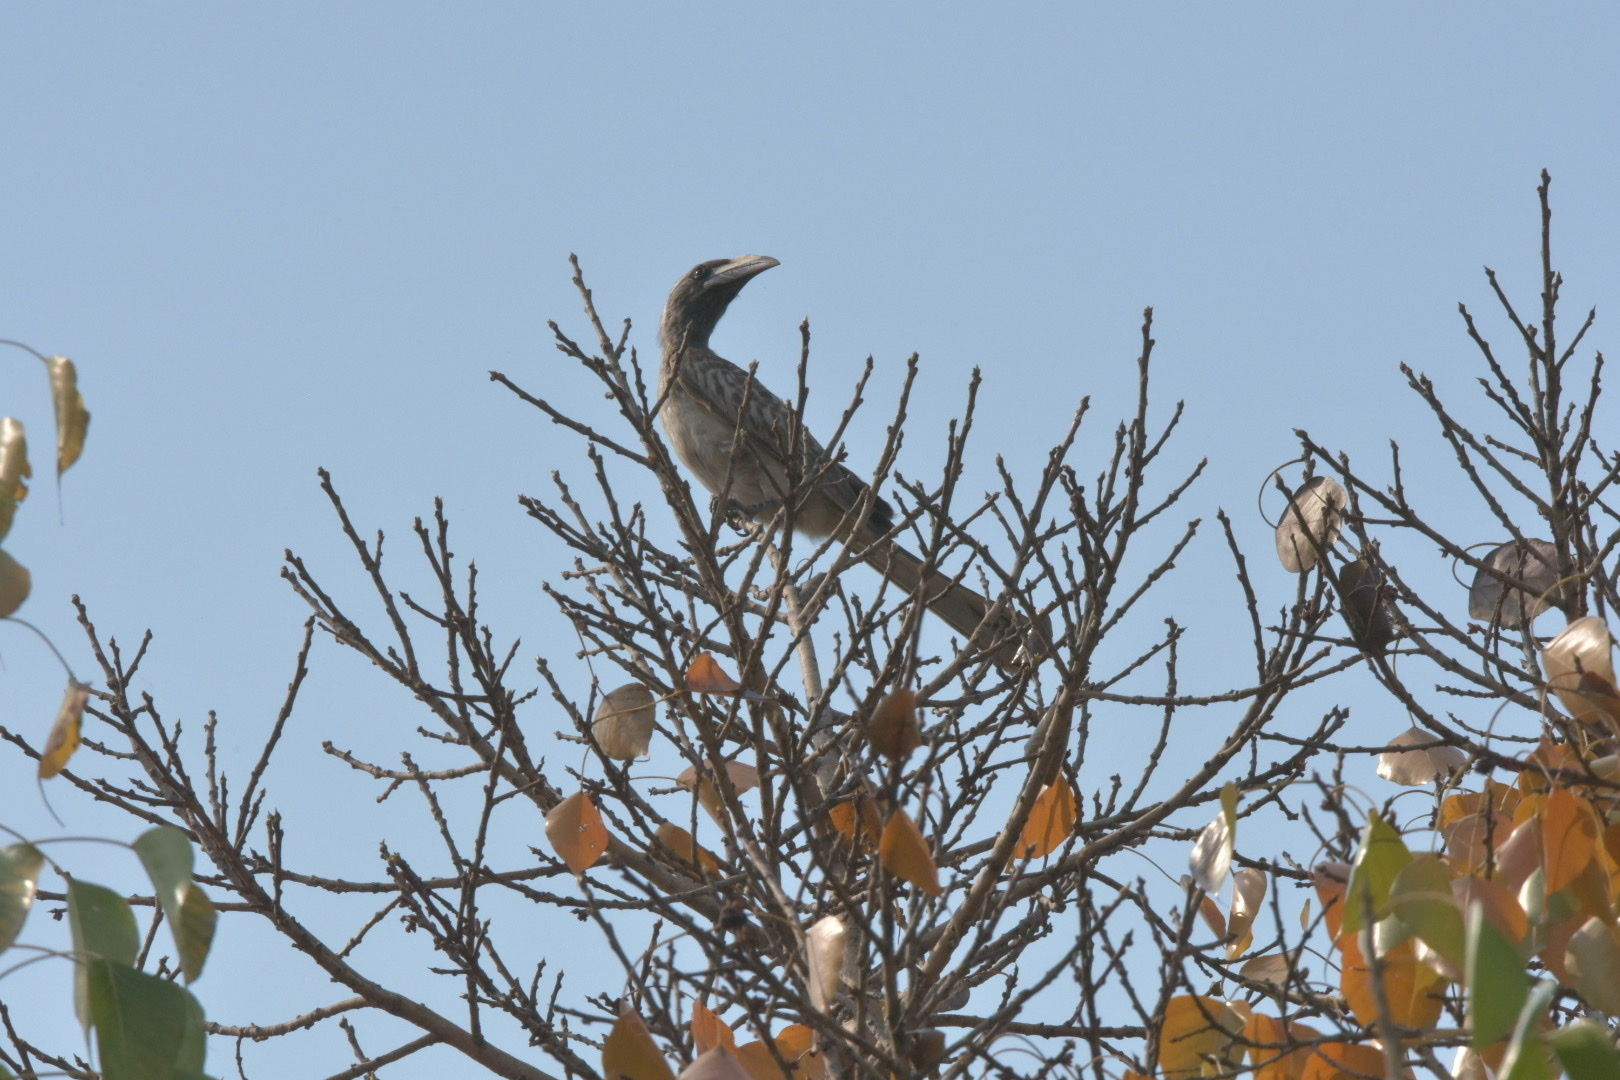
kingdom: Animalia
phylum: Chordata
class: Aves
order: Bucerotiformes
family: Bucerotidae
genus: Lophoceros
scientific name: Lophoceros nasutus
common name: African grey hornbill
